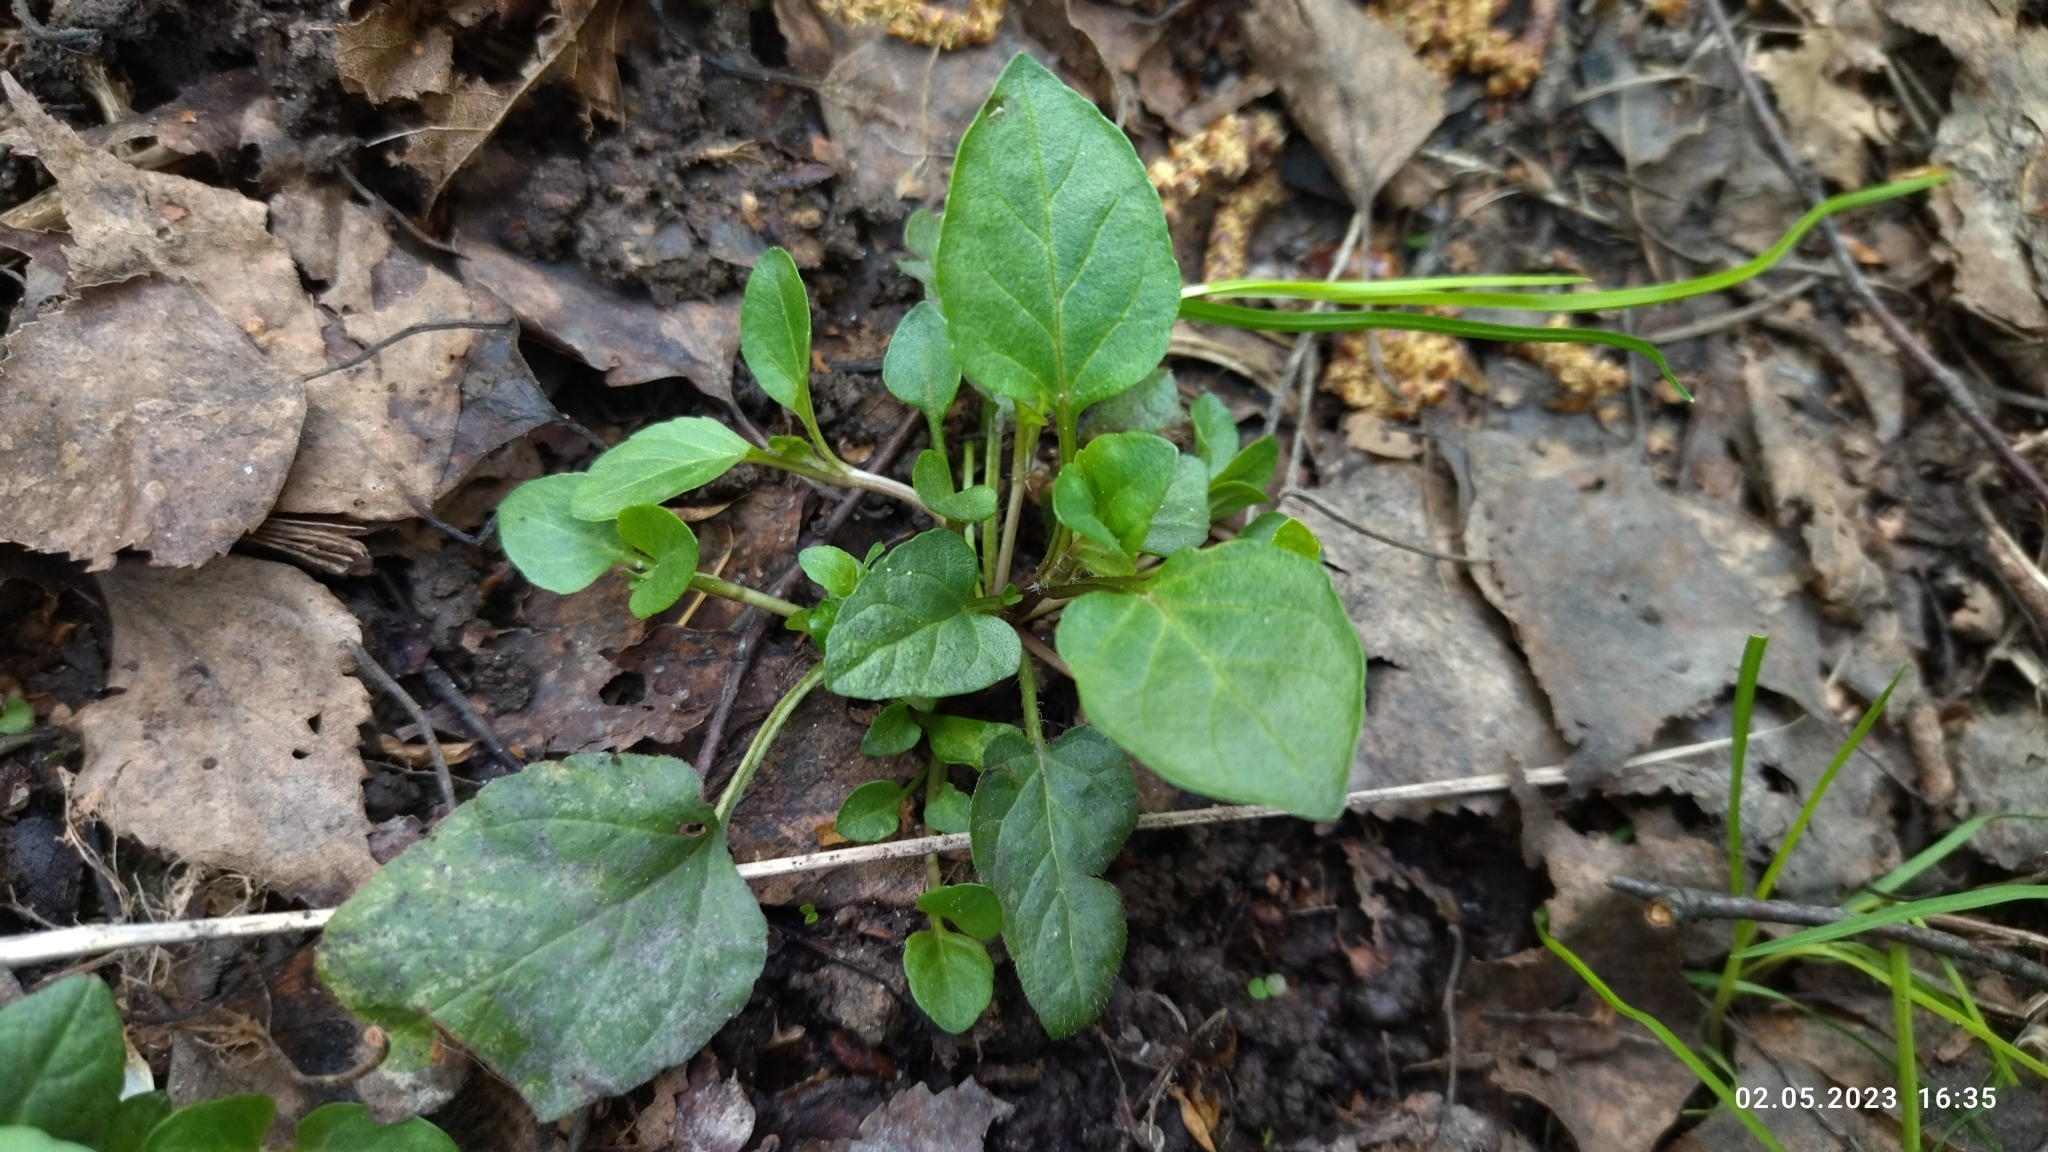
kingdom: Plantae
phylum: Tracheophyta
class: Magnoliopsida
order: Lamiales
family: Lamiaceae
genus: Prunella
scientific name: Prunella vulgaris
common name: Heal-all
